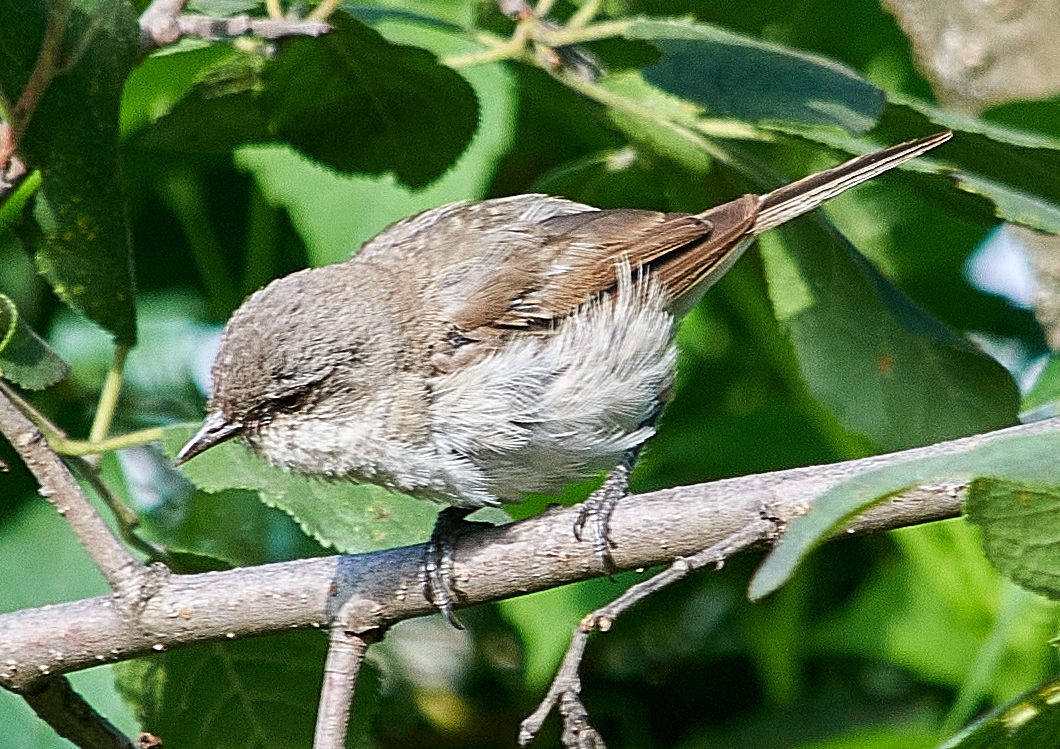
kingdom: Animalia
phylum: Chordata
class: Aves
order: Passeriformes
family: Sylviidae
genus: Sylvia
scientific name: Sylvia curruca
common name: Lesser whitethroat
